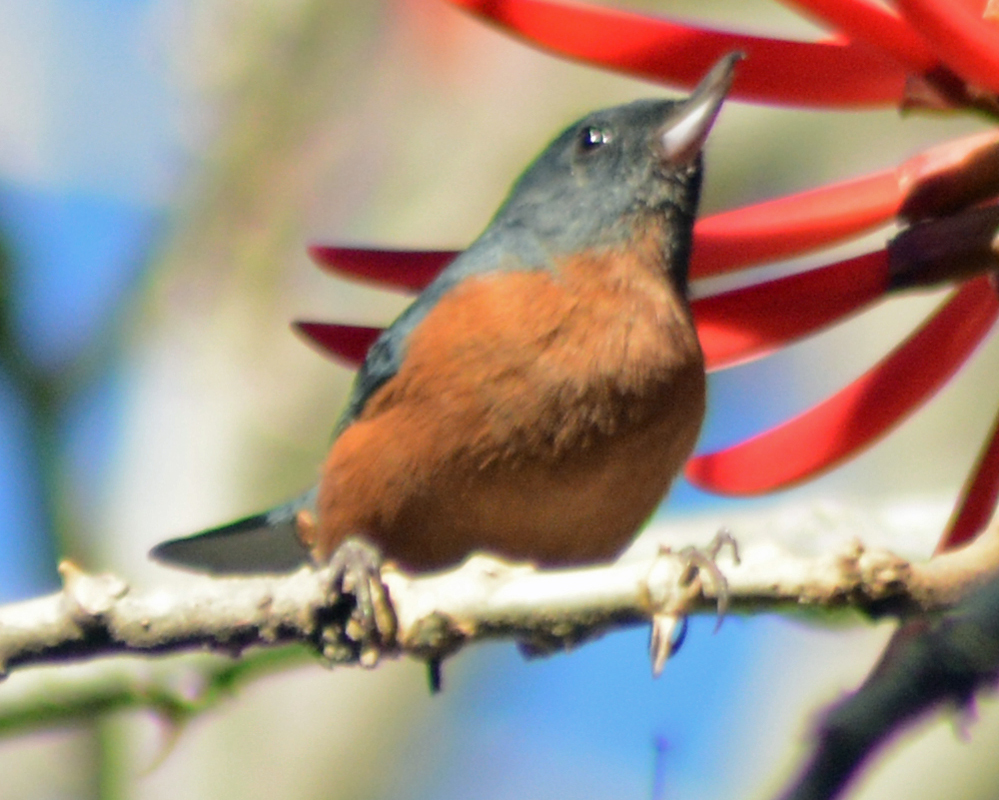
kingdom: Animalia
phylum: Chordata
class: Aves
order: Passeriformes
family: Thraupidae
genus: Diglossa
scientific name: Diglossa baritula
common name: Cinnamon-bellied flowerpiercer
